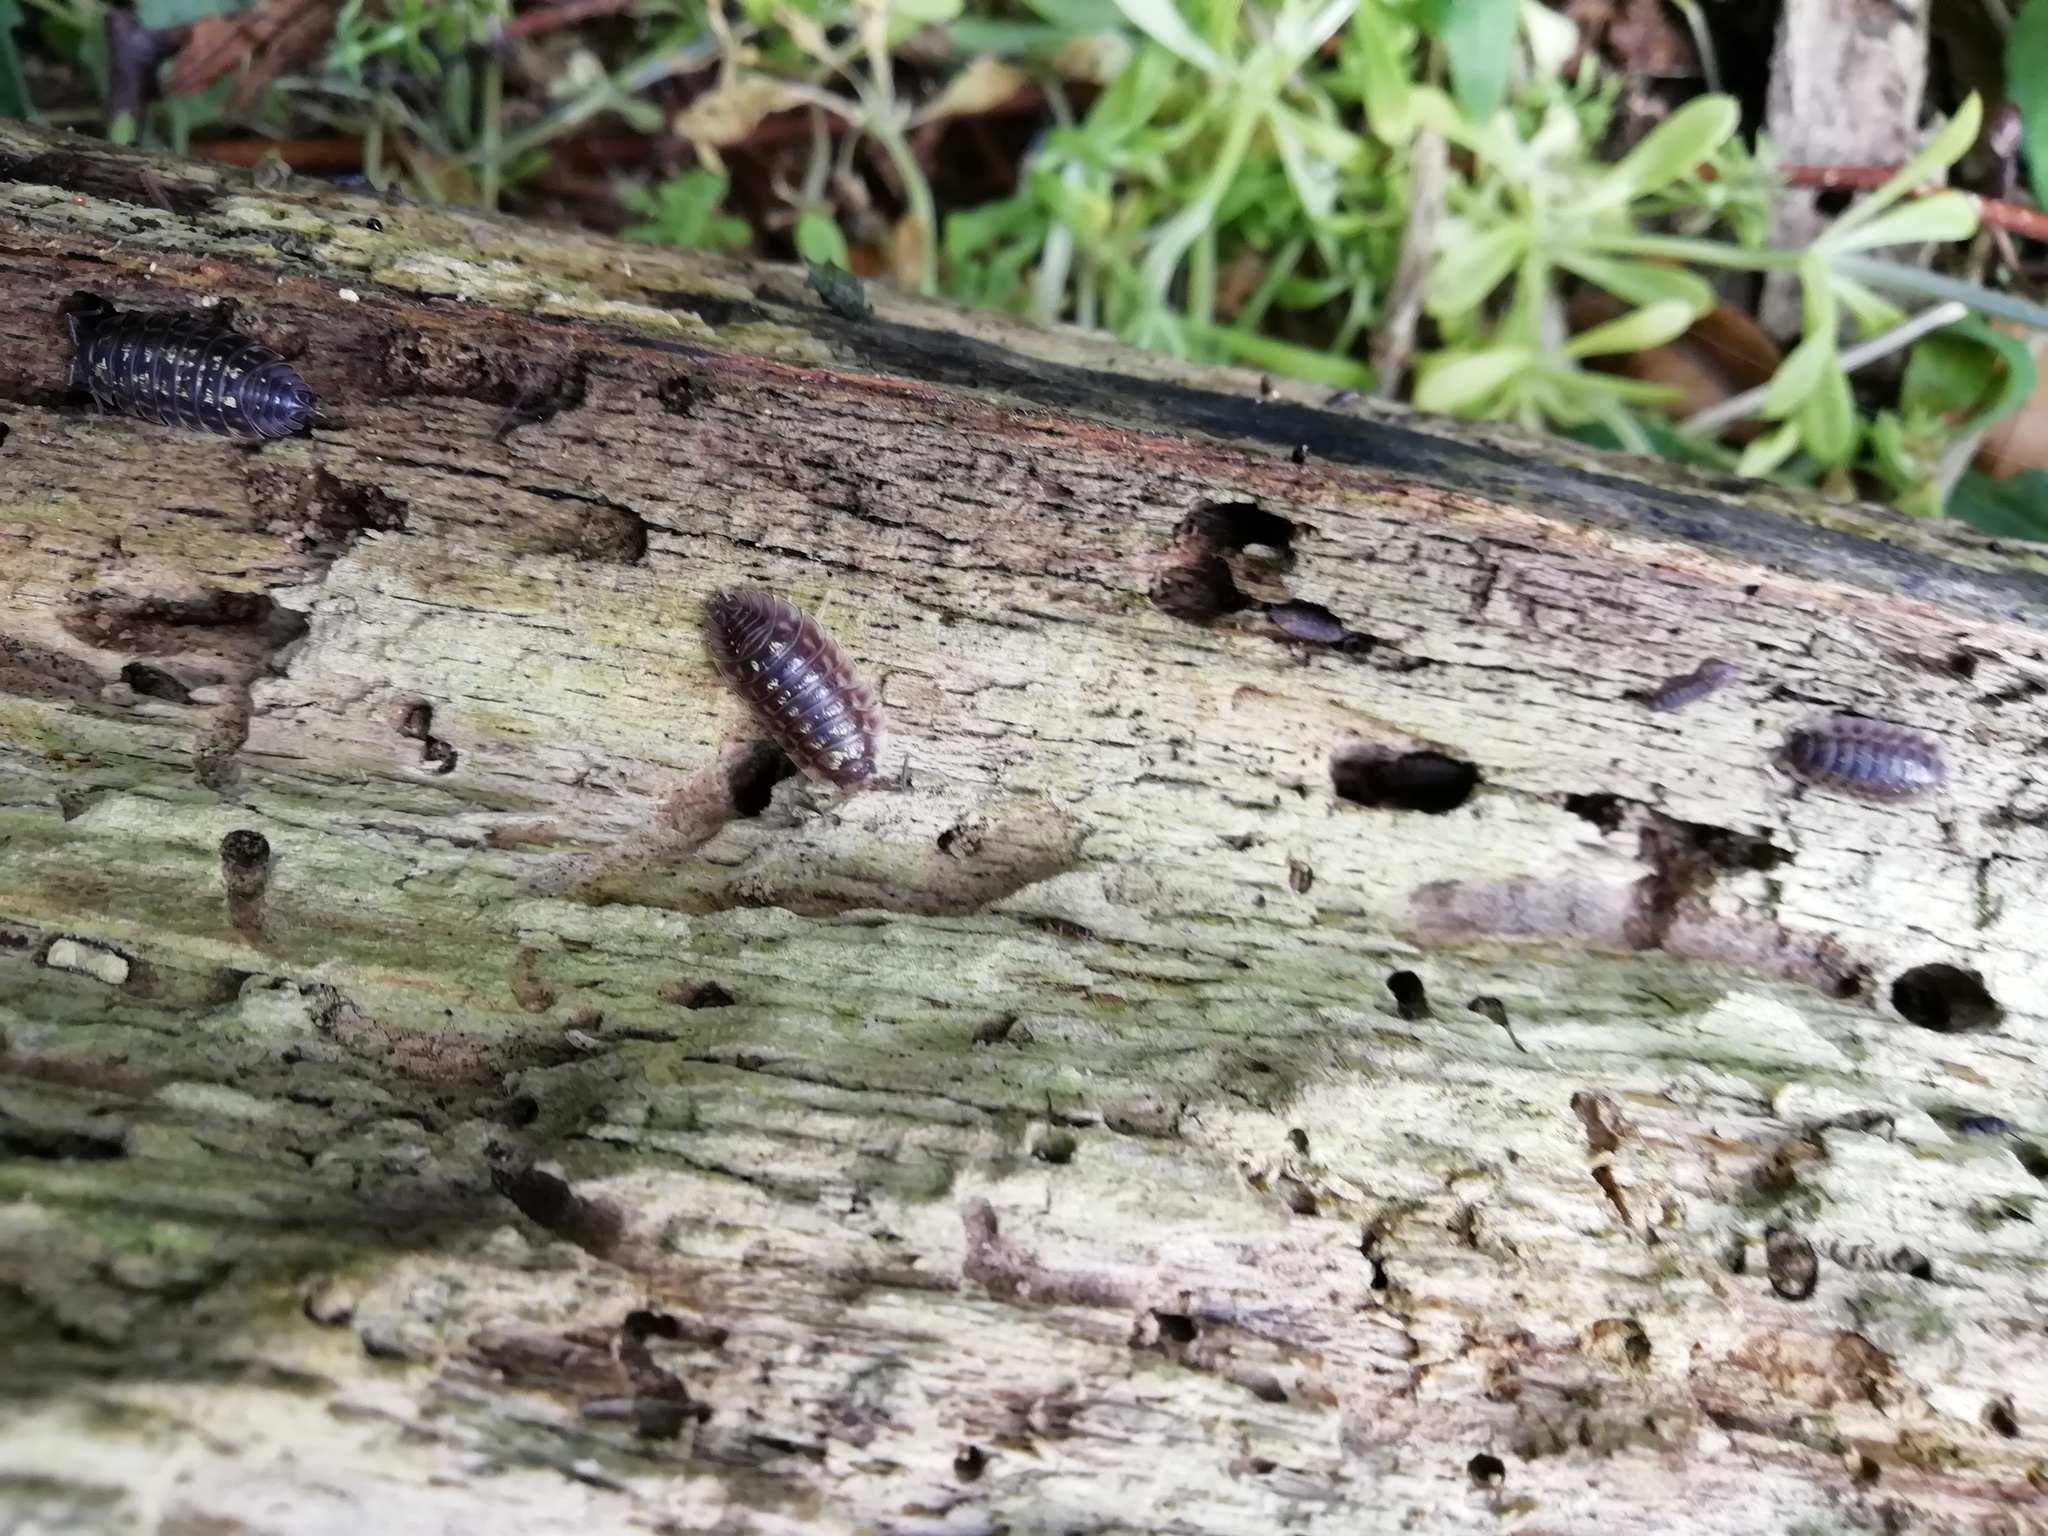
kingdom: Animalia
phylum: Arthropoda
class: Malacostraca
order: Isopoda
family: Oniscidae
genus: Oniscus
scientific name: Oniscus asellus
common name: Common shiny woodlouse
